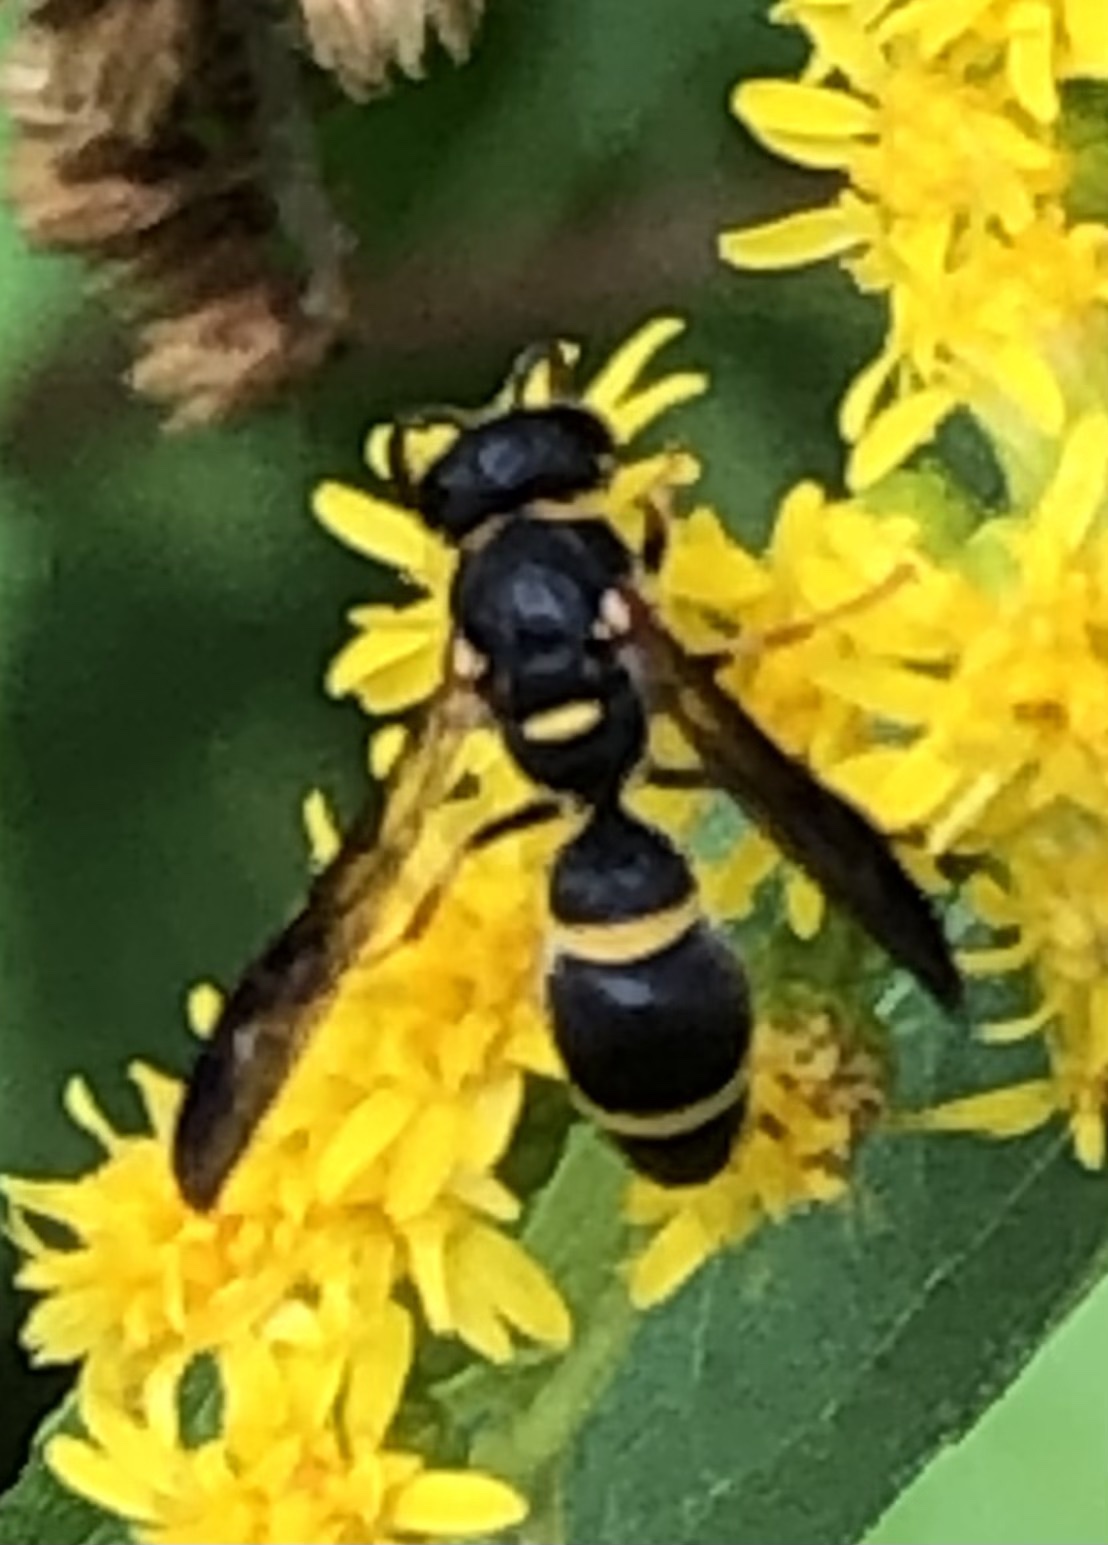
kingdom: Animalia
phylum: Arthropoda
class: Insecta
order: Hymenoptera
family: Eumenidae
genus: Parancistrocerus
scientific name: Parancistrocerus perennis
